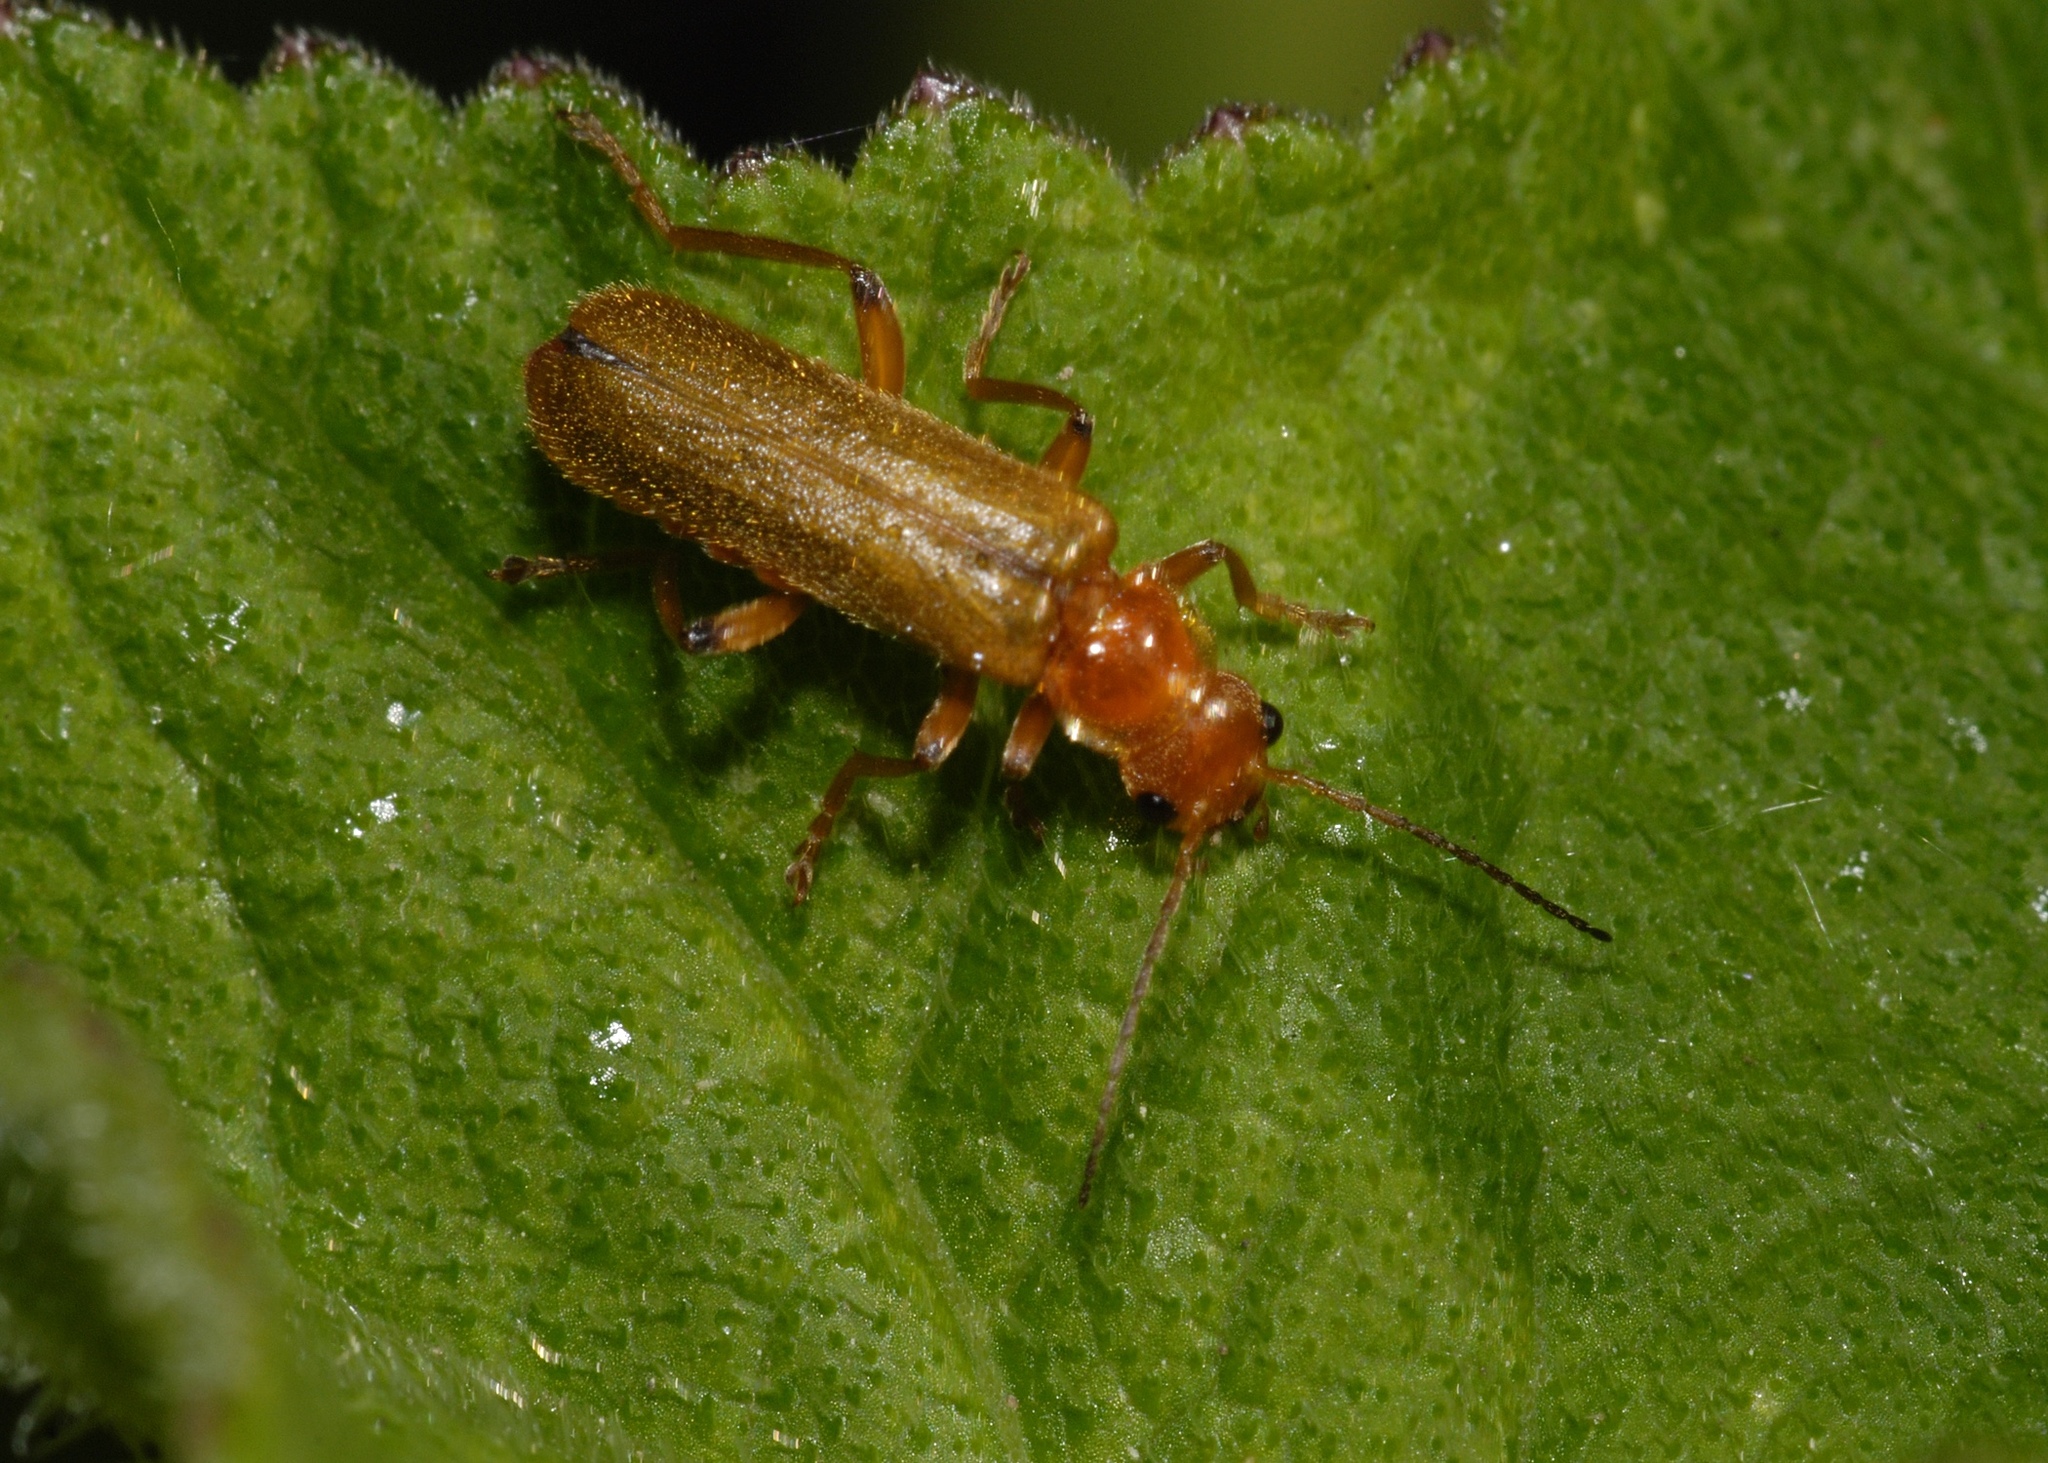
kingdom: Animalia
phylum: Arthropoda
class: Insecta
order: Coleoptera
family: Cantharidae
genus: Cantharis
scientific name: Cantharis cryptica
